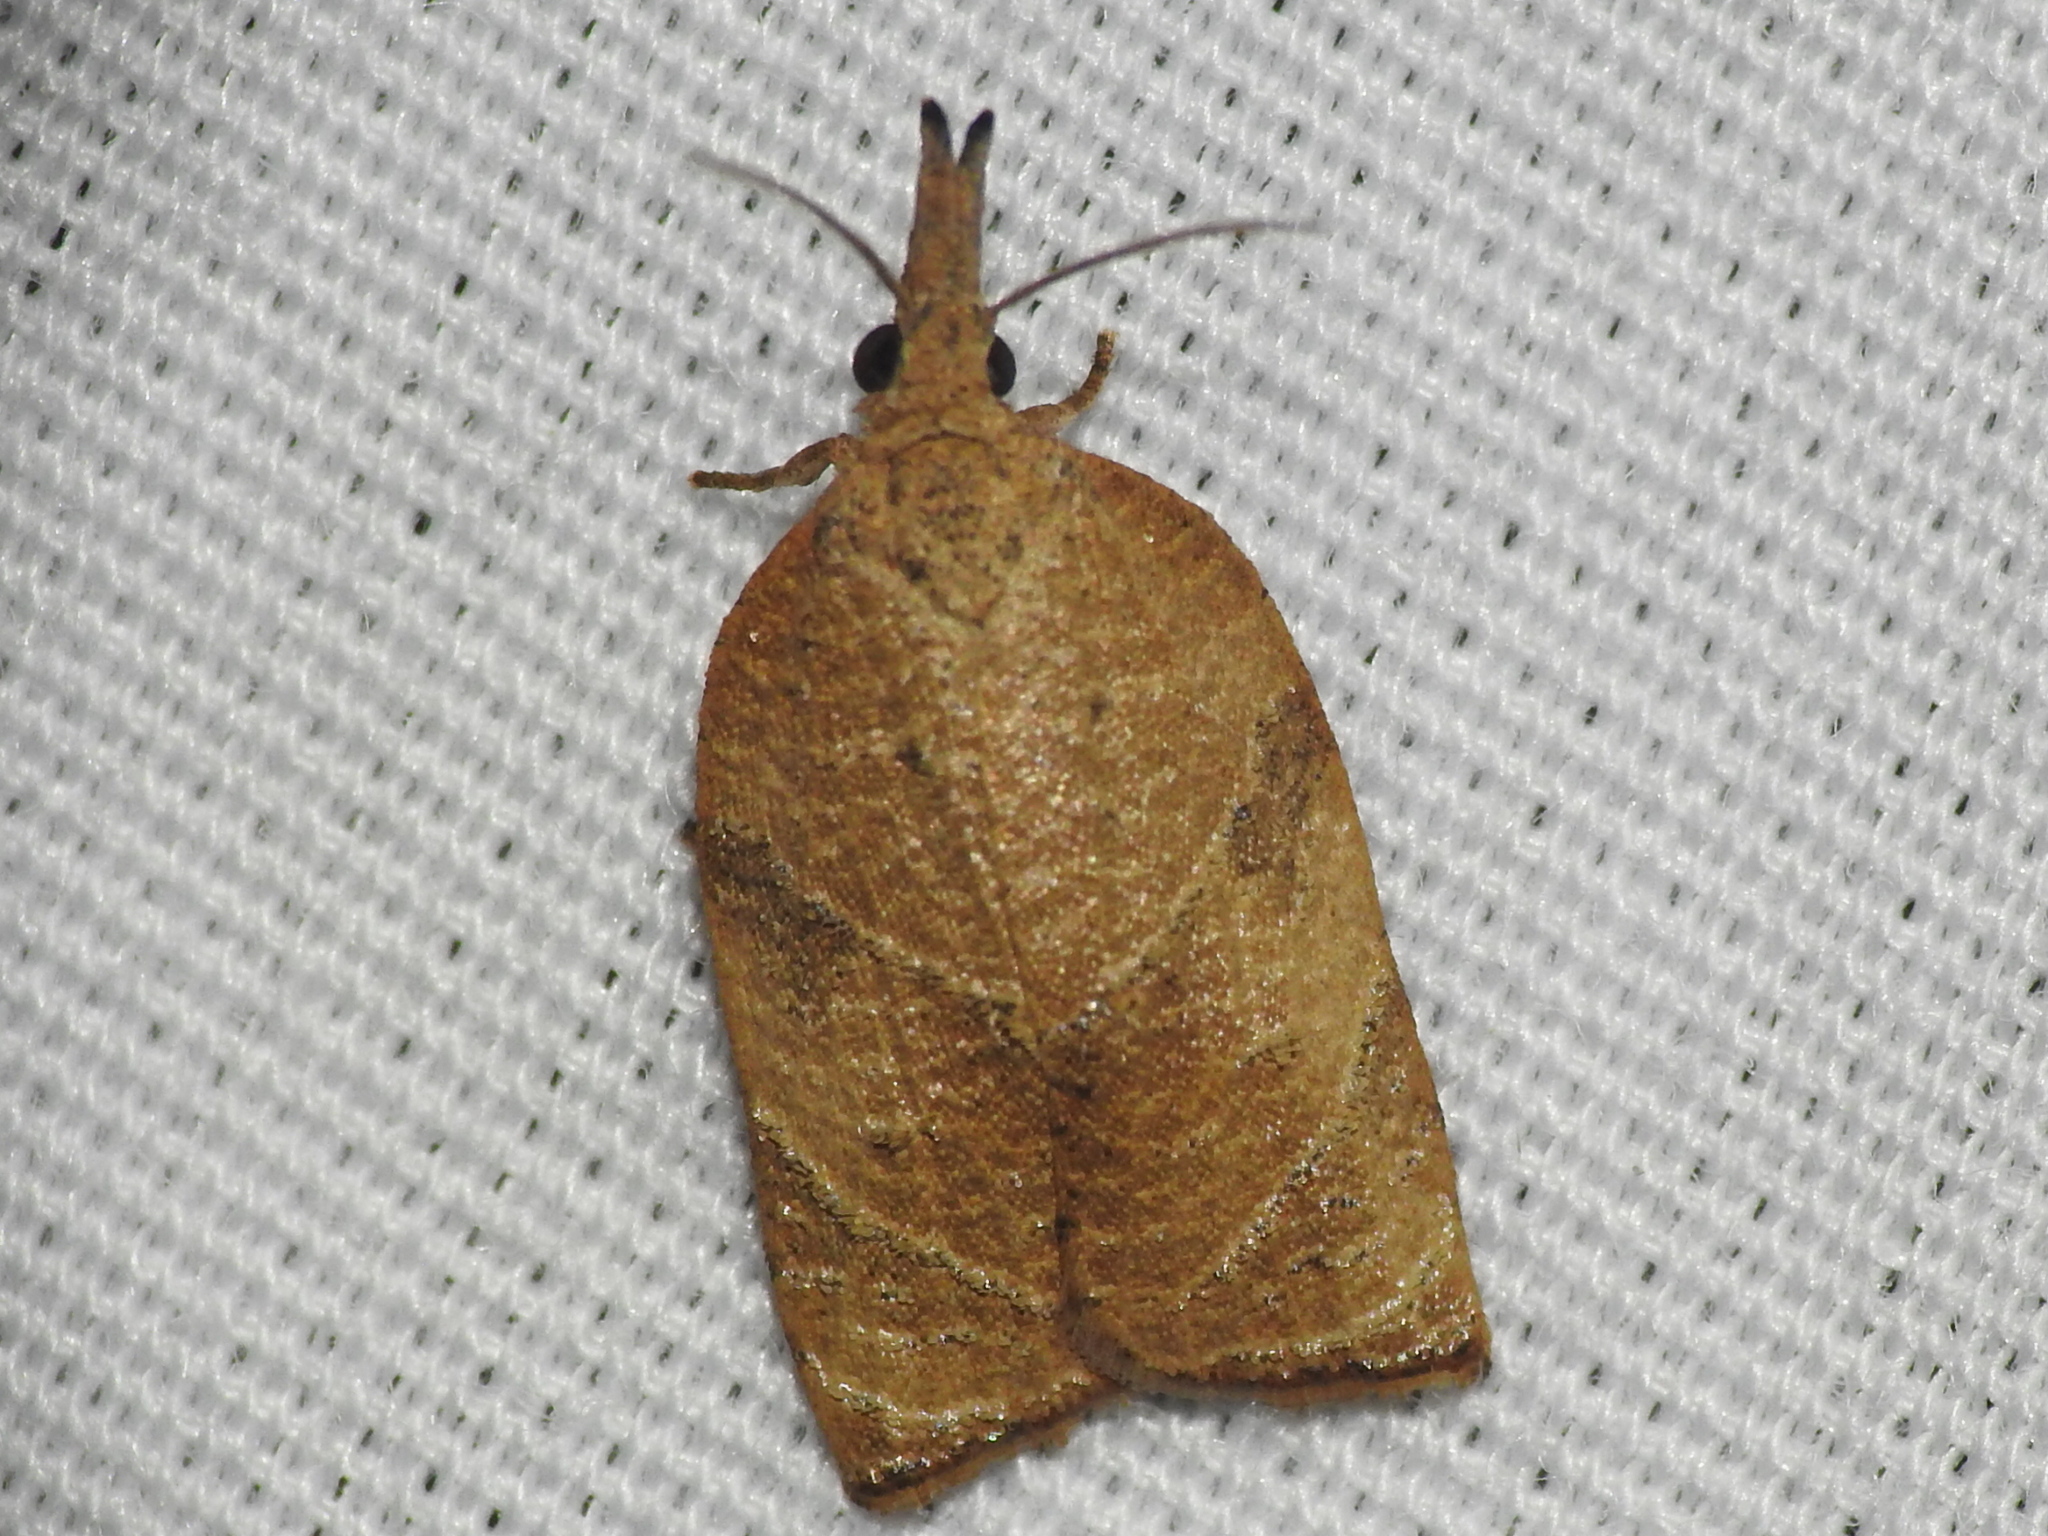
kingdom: Animalia
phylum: Arthropoda
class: Insecta
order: Lepidoptera
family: Tortricidae
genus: Platynota
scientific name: Platynota rostrana
